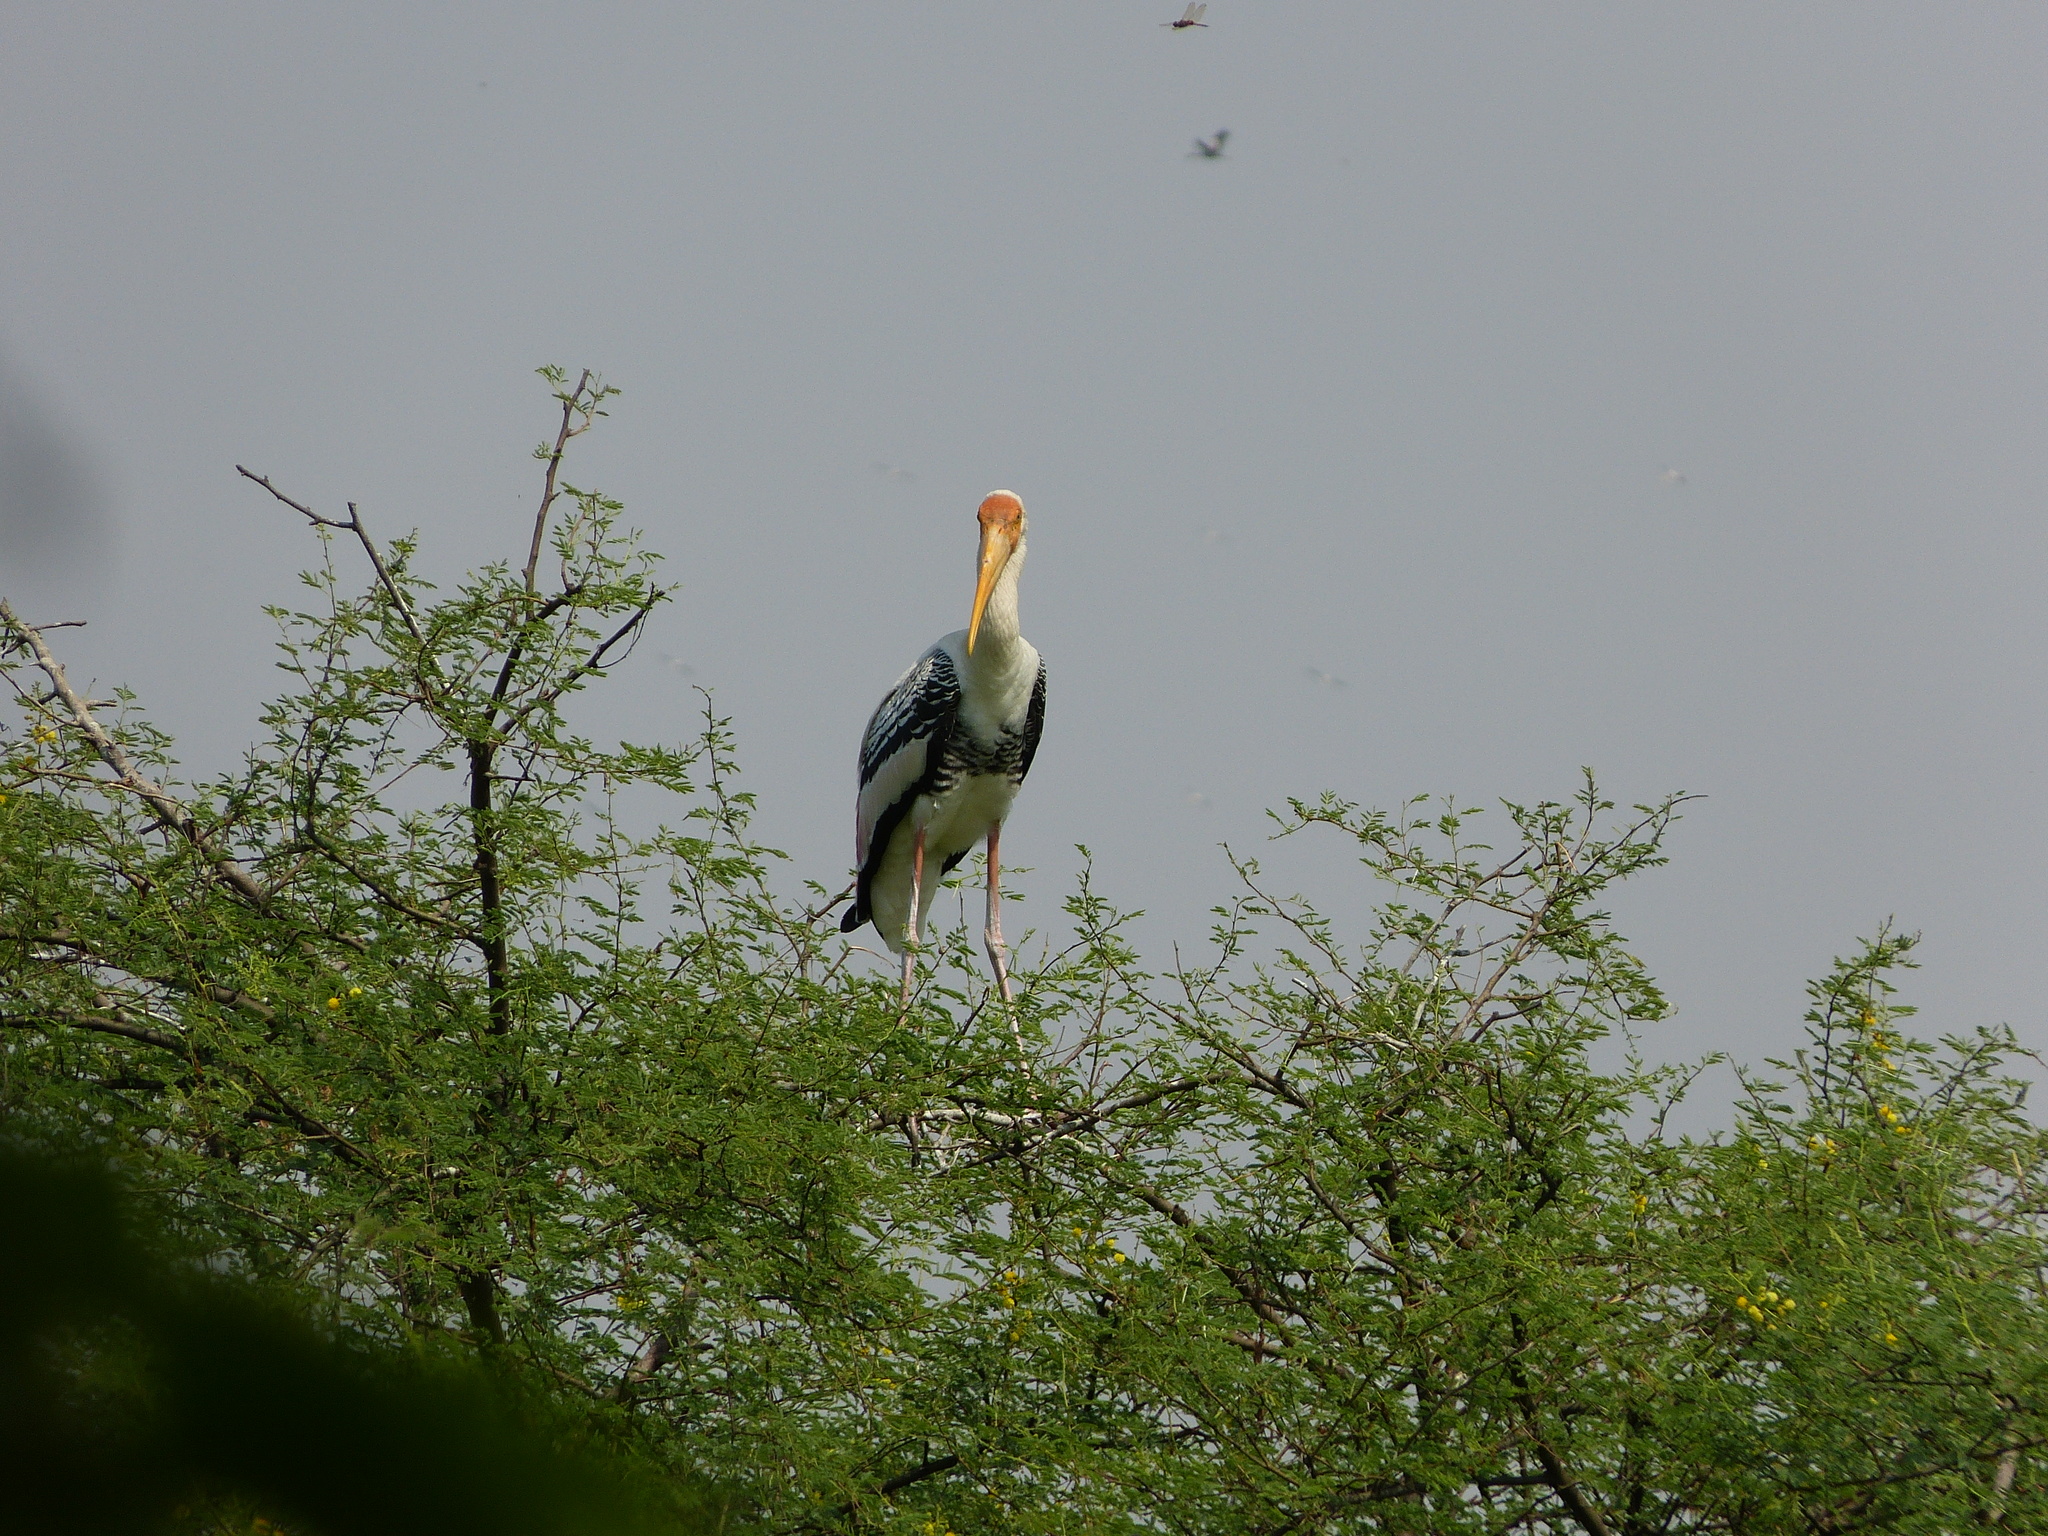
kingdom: Animalia
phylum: Chordata
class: Aves
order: Ciconiiformes
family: Ciconiidae
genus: Mycteria
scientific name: Mycteria leucocephala
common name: Painted stork
